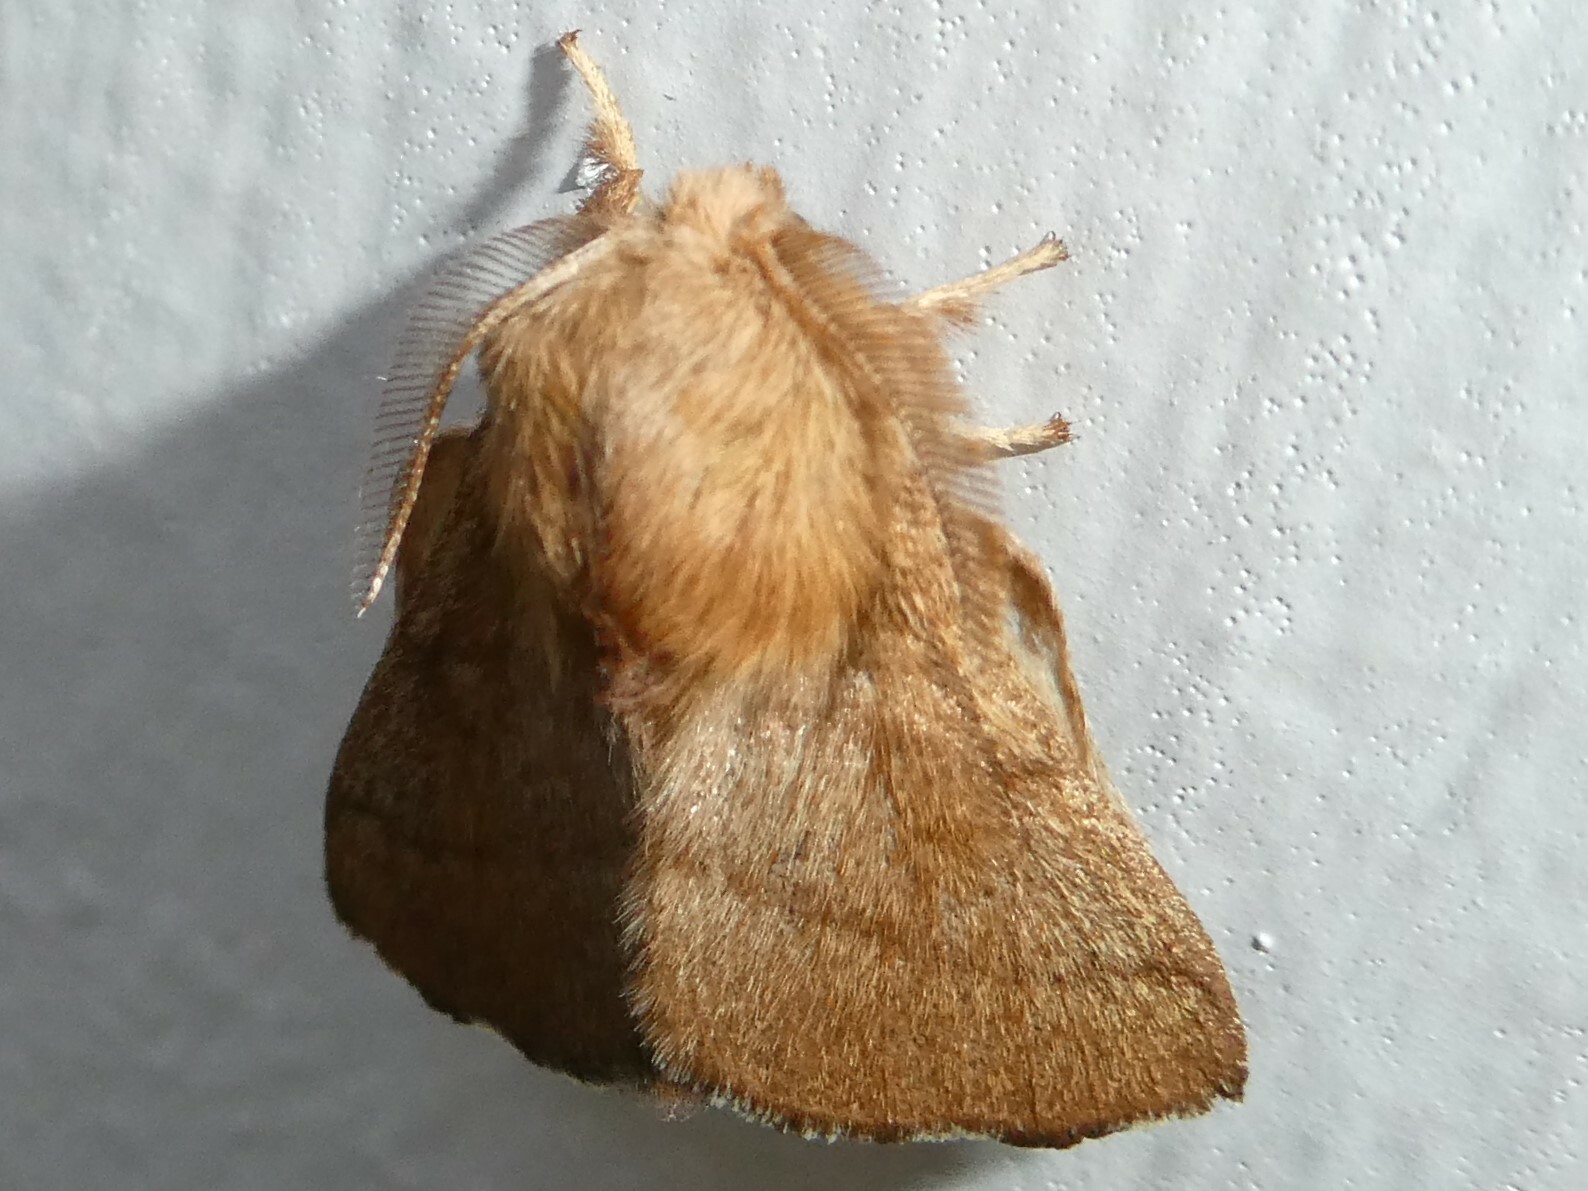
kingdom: Animalia
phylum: Arthropoda
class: Insecta
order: Lepidoptera
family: Lasiocampidae
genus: Malacosoma
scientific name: Malacosoma disstria
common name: Forest tent caterpillar
